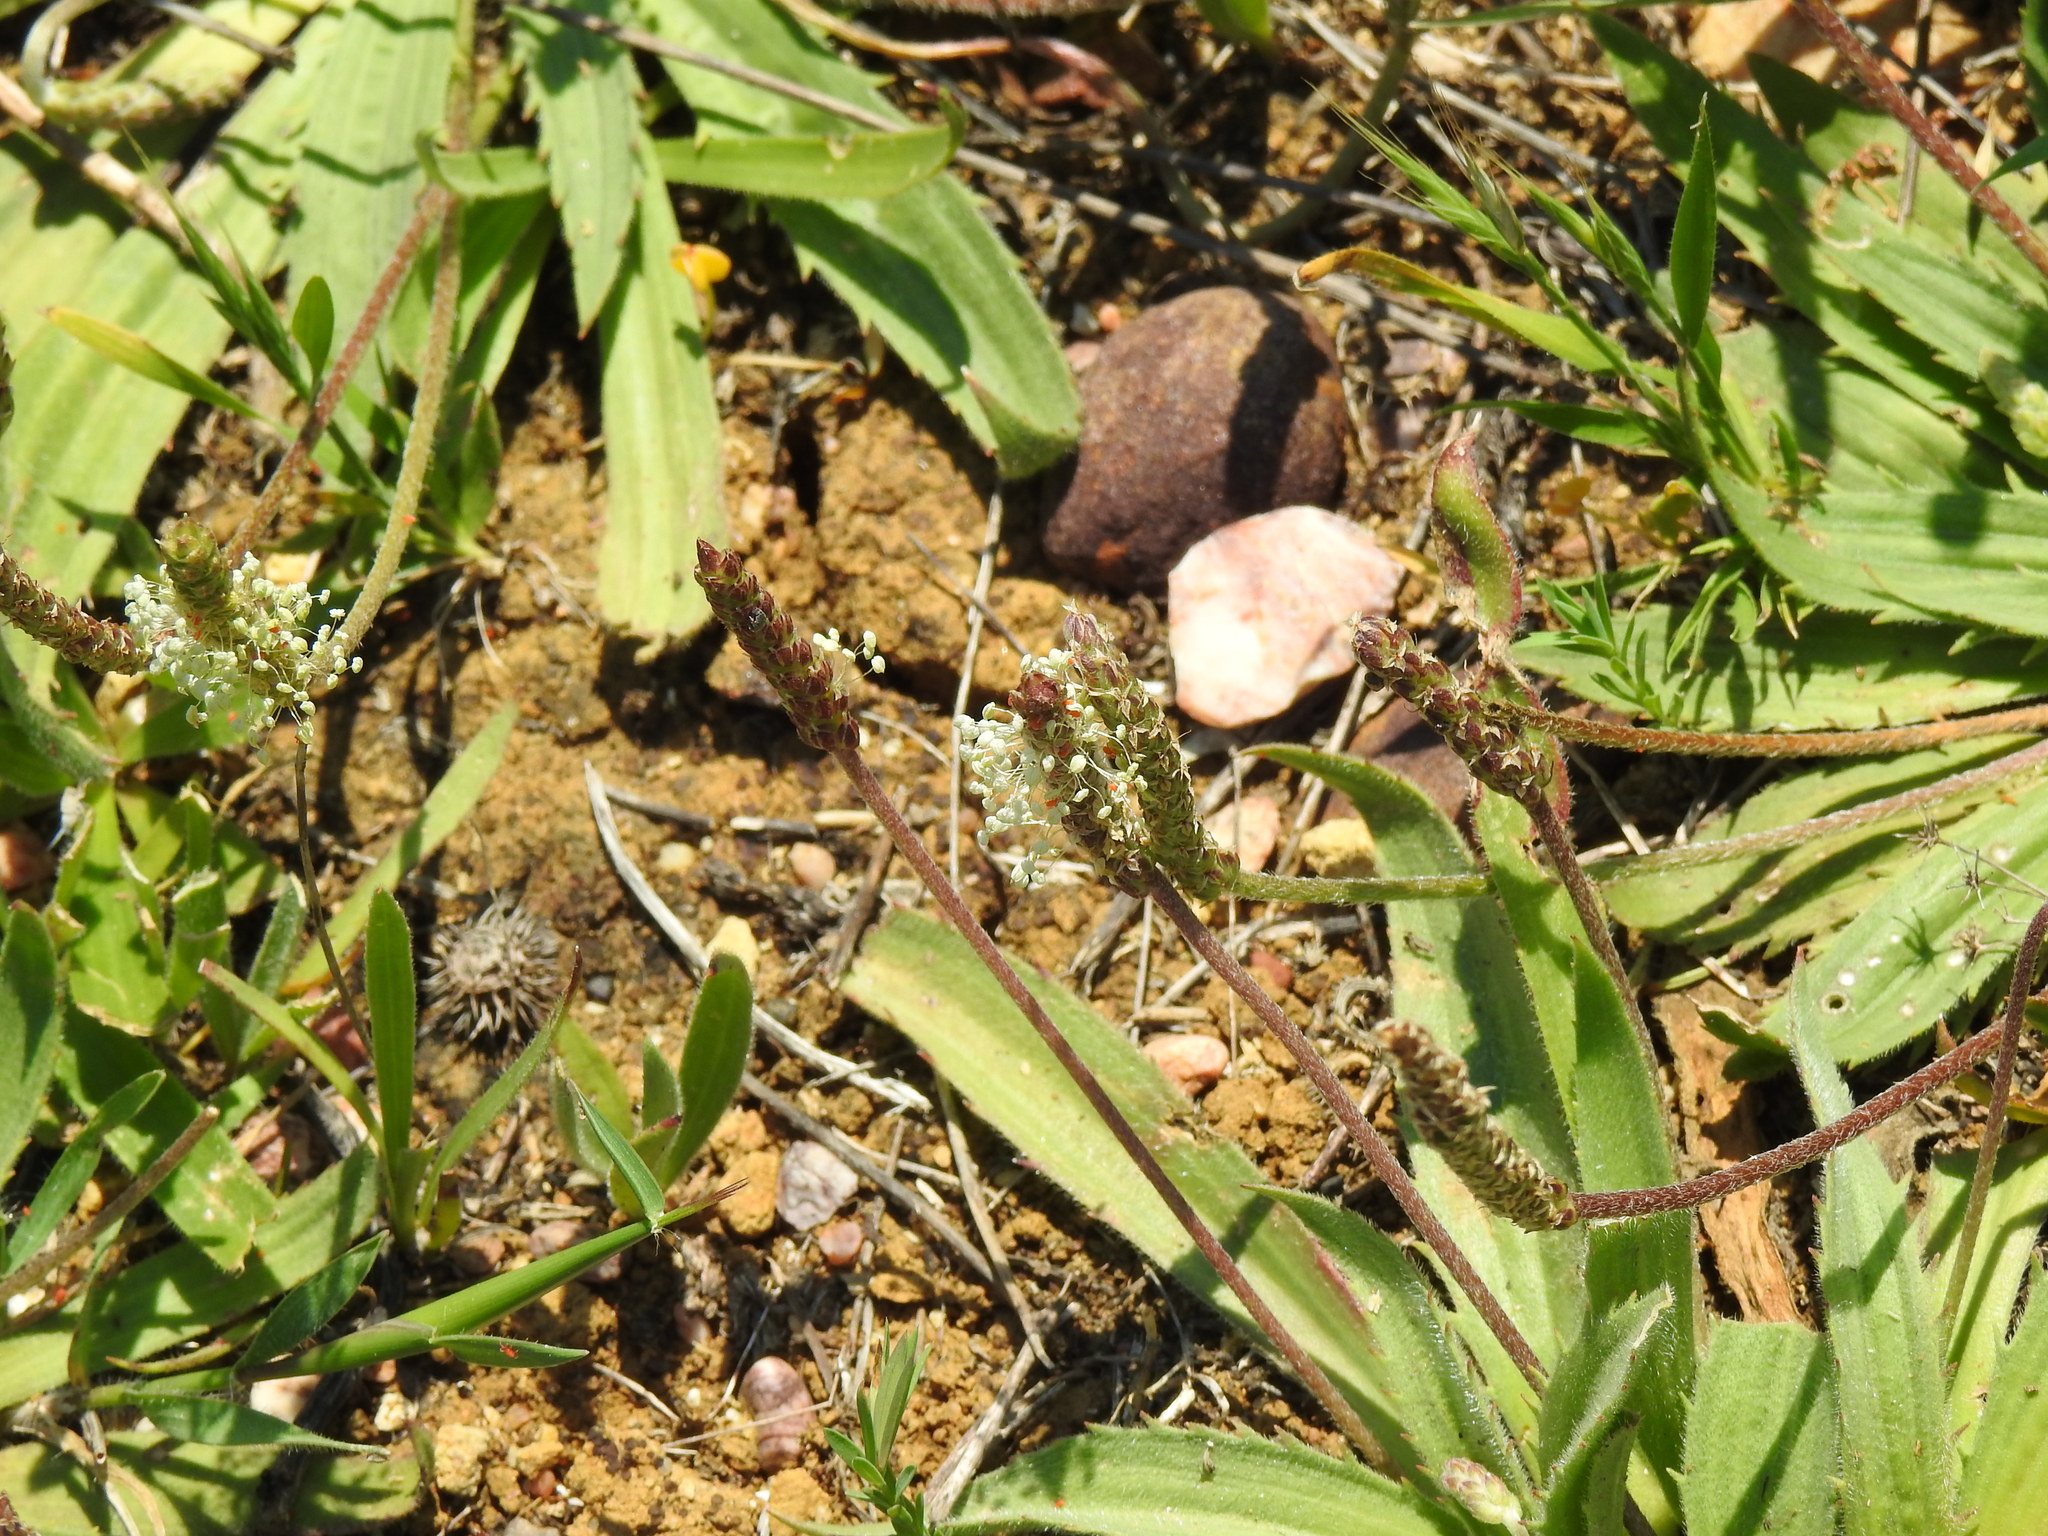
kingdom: Plantae
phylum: Tracheophyta
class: Magnoliopsida
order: Lamiales
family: Plantaginaceae
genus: Plantago
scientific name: Plantago serraria
